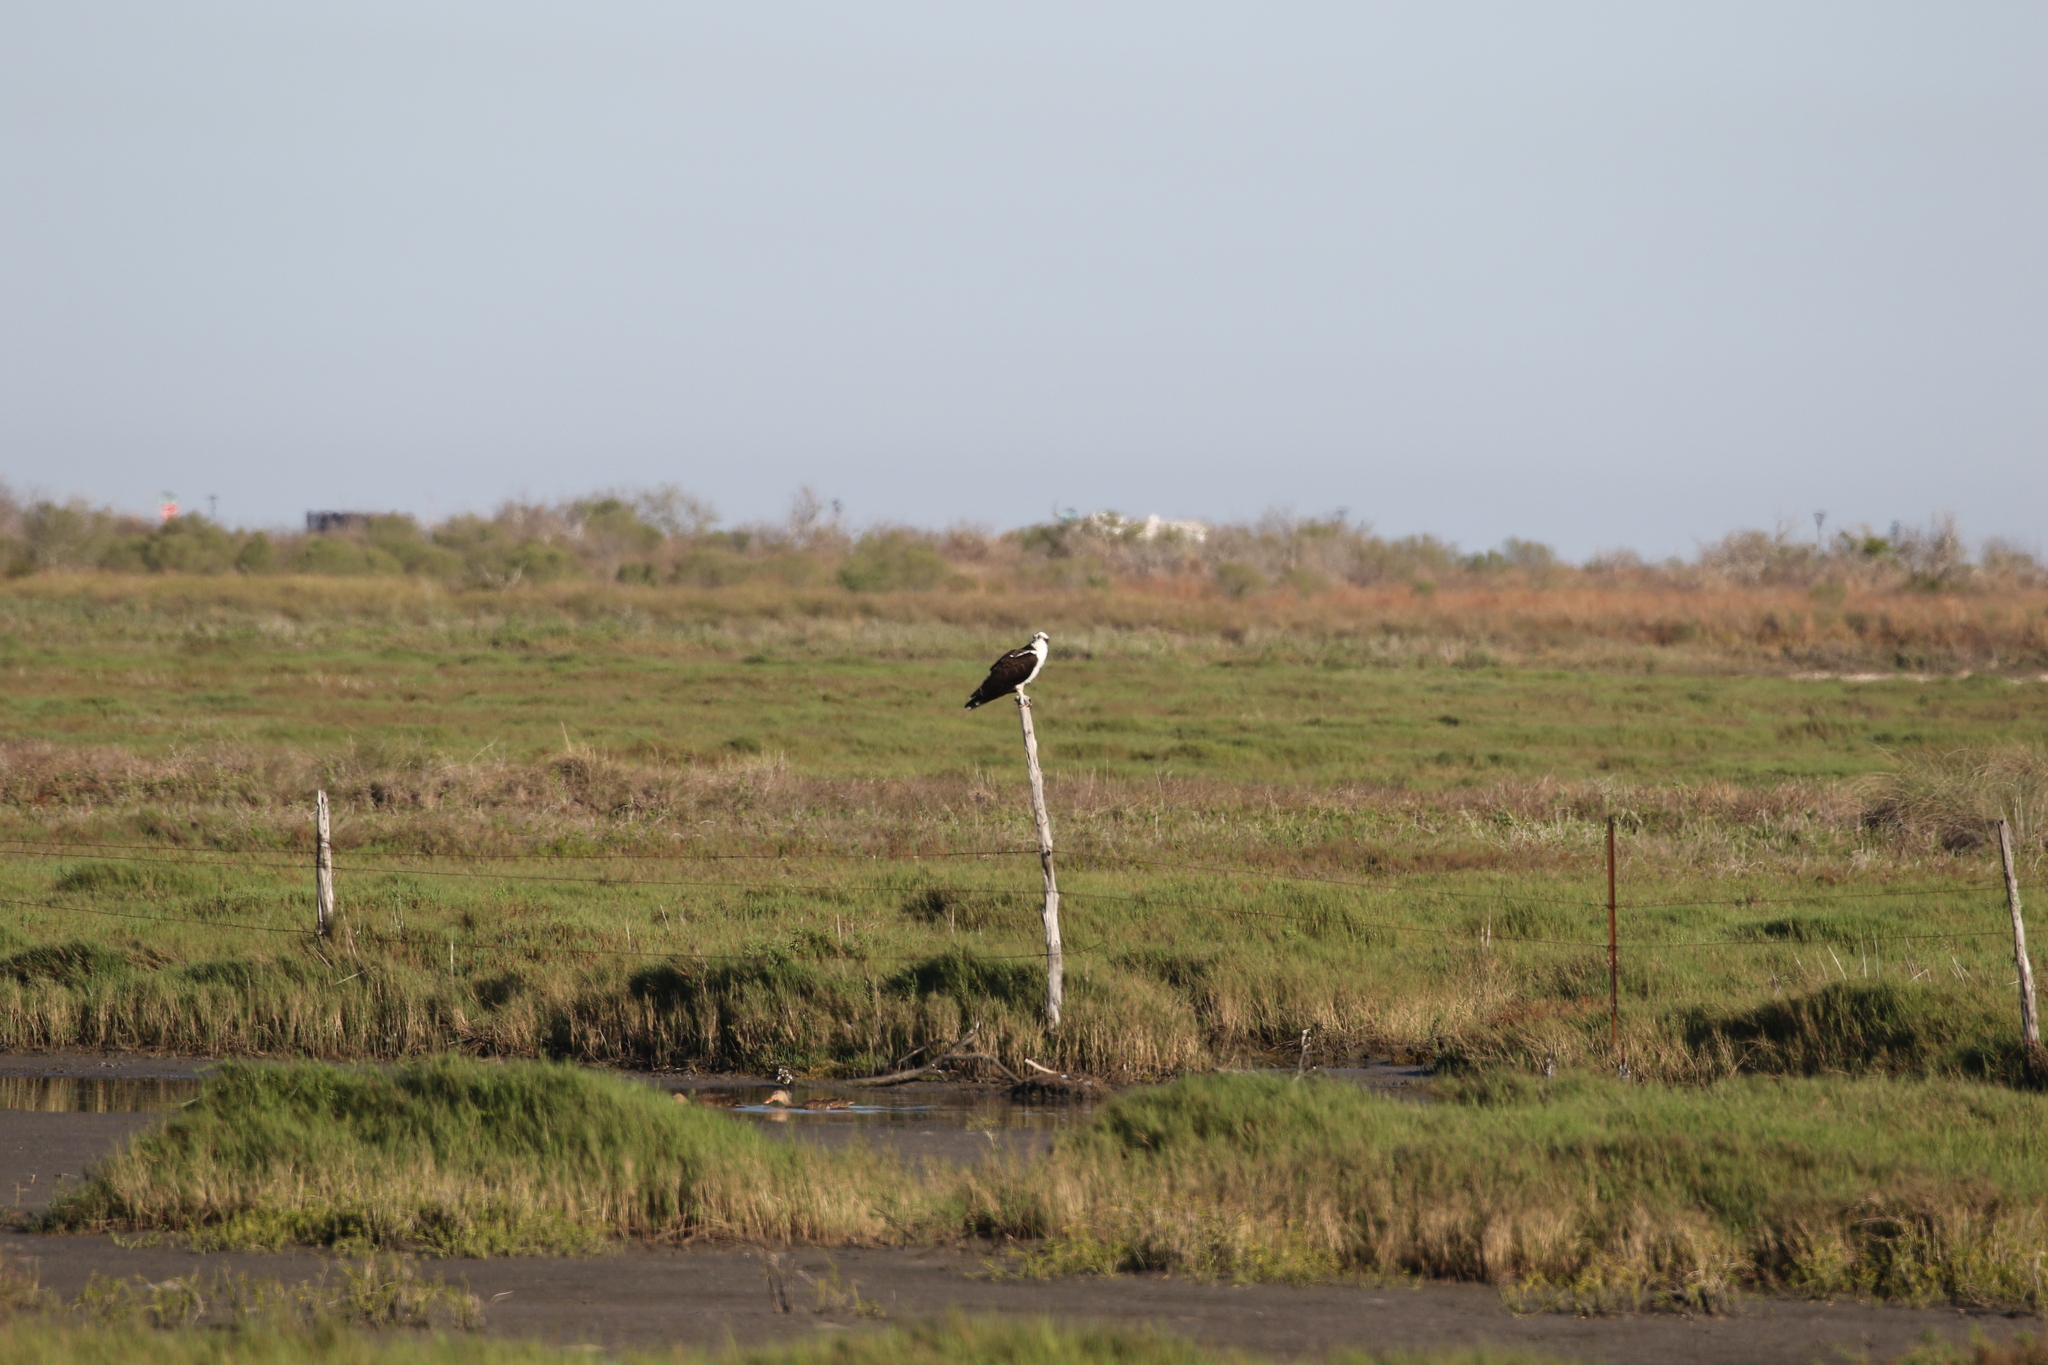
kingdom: Animalia
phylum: Chordata
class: Aves
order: Accipitriformes
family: Pandionidae
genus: Pandion
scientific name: Pandion haliaetus
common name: Osprey
